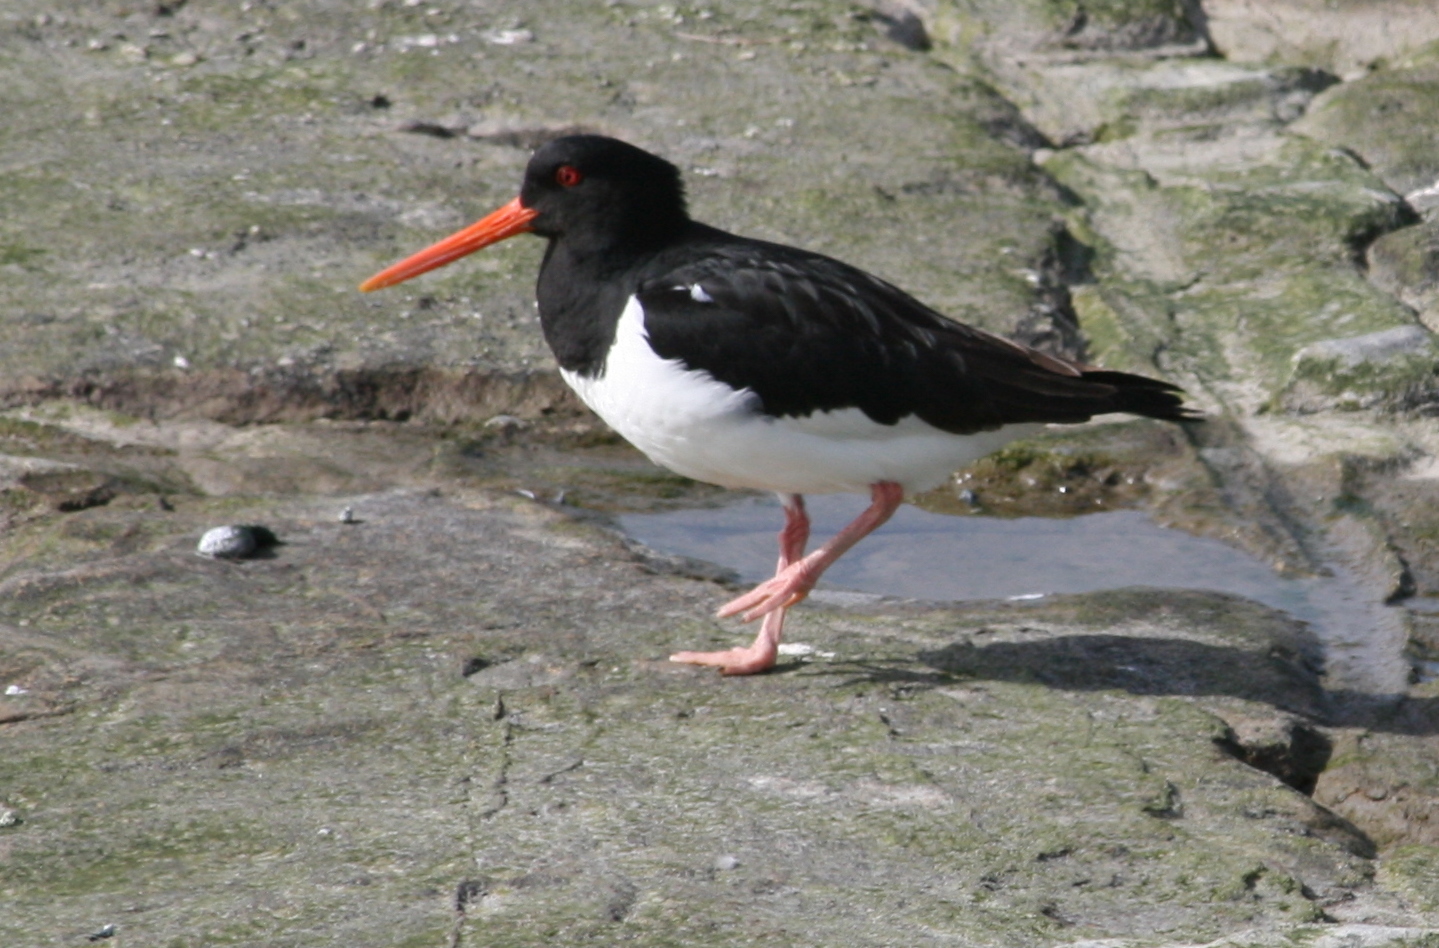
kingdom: Animalia
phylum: Chordata
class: Aves
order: Charadriiformes
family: Haematopodidae
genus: Haematopus
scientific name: Haematopus ostralegus
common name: Eurasian oystercatcher
